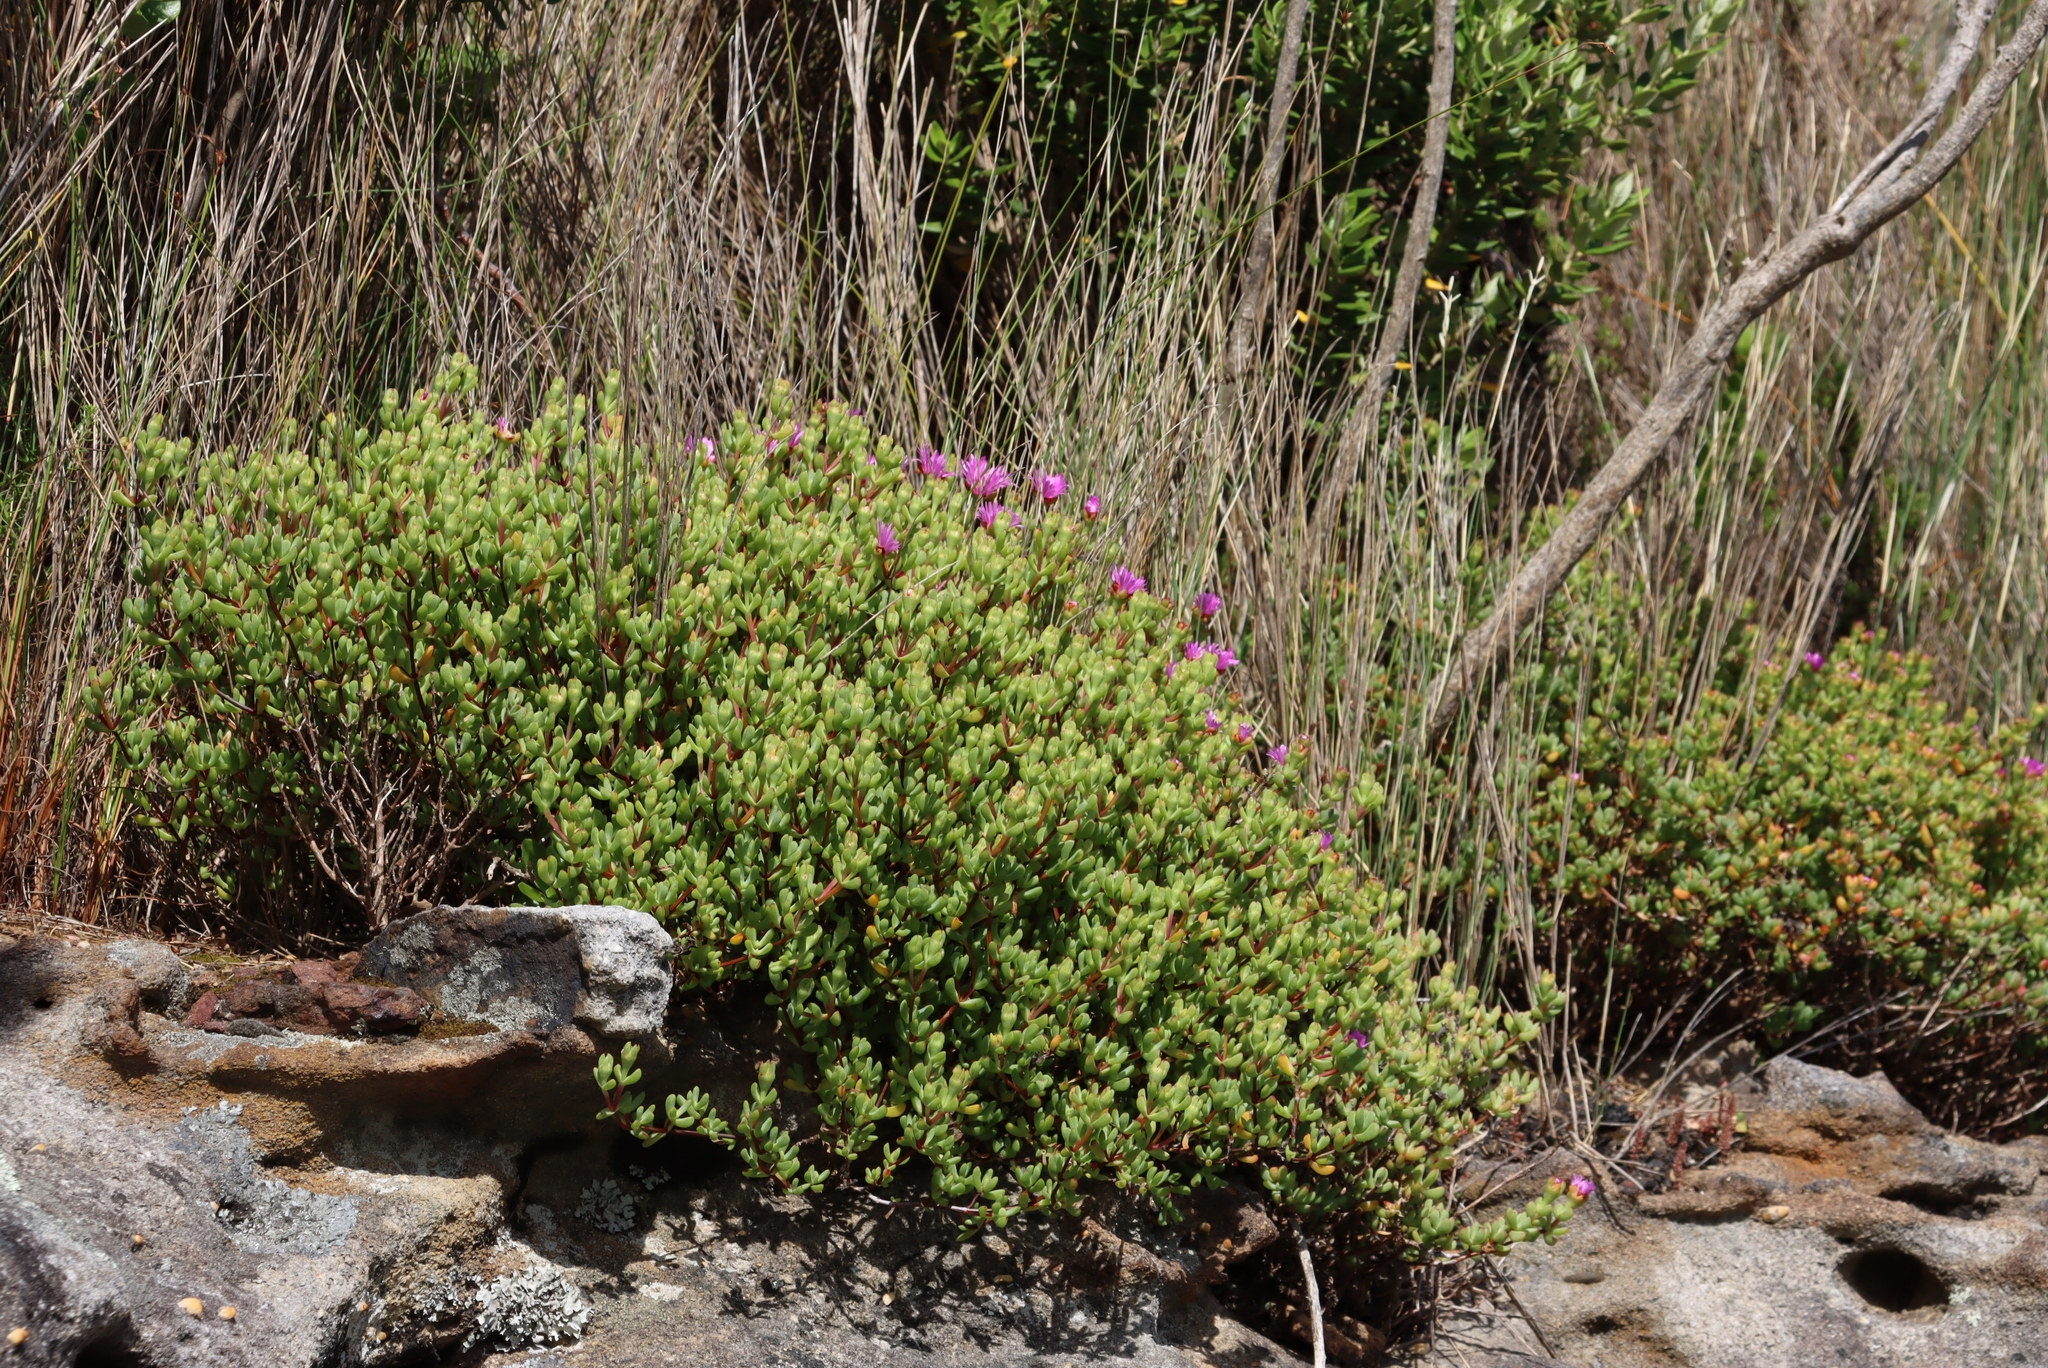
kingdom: Plantae
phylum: Tracheophyta
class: Magnoliopsida
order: Caryophyllales
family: Aizoaceae
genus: Oscularia
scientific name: Oscularia falciformis
